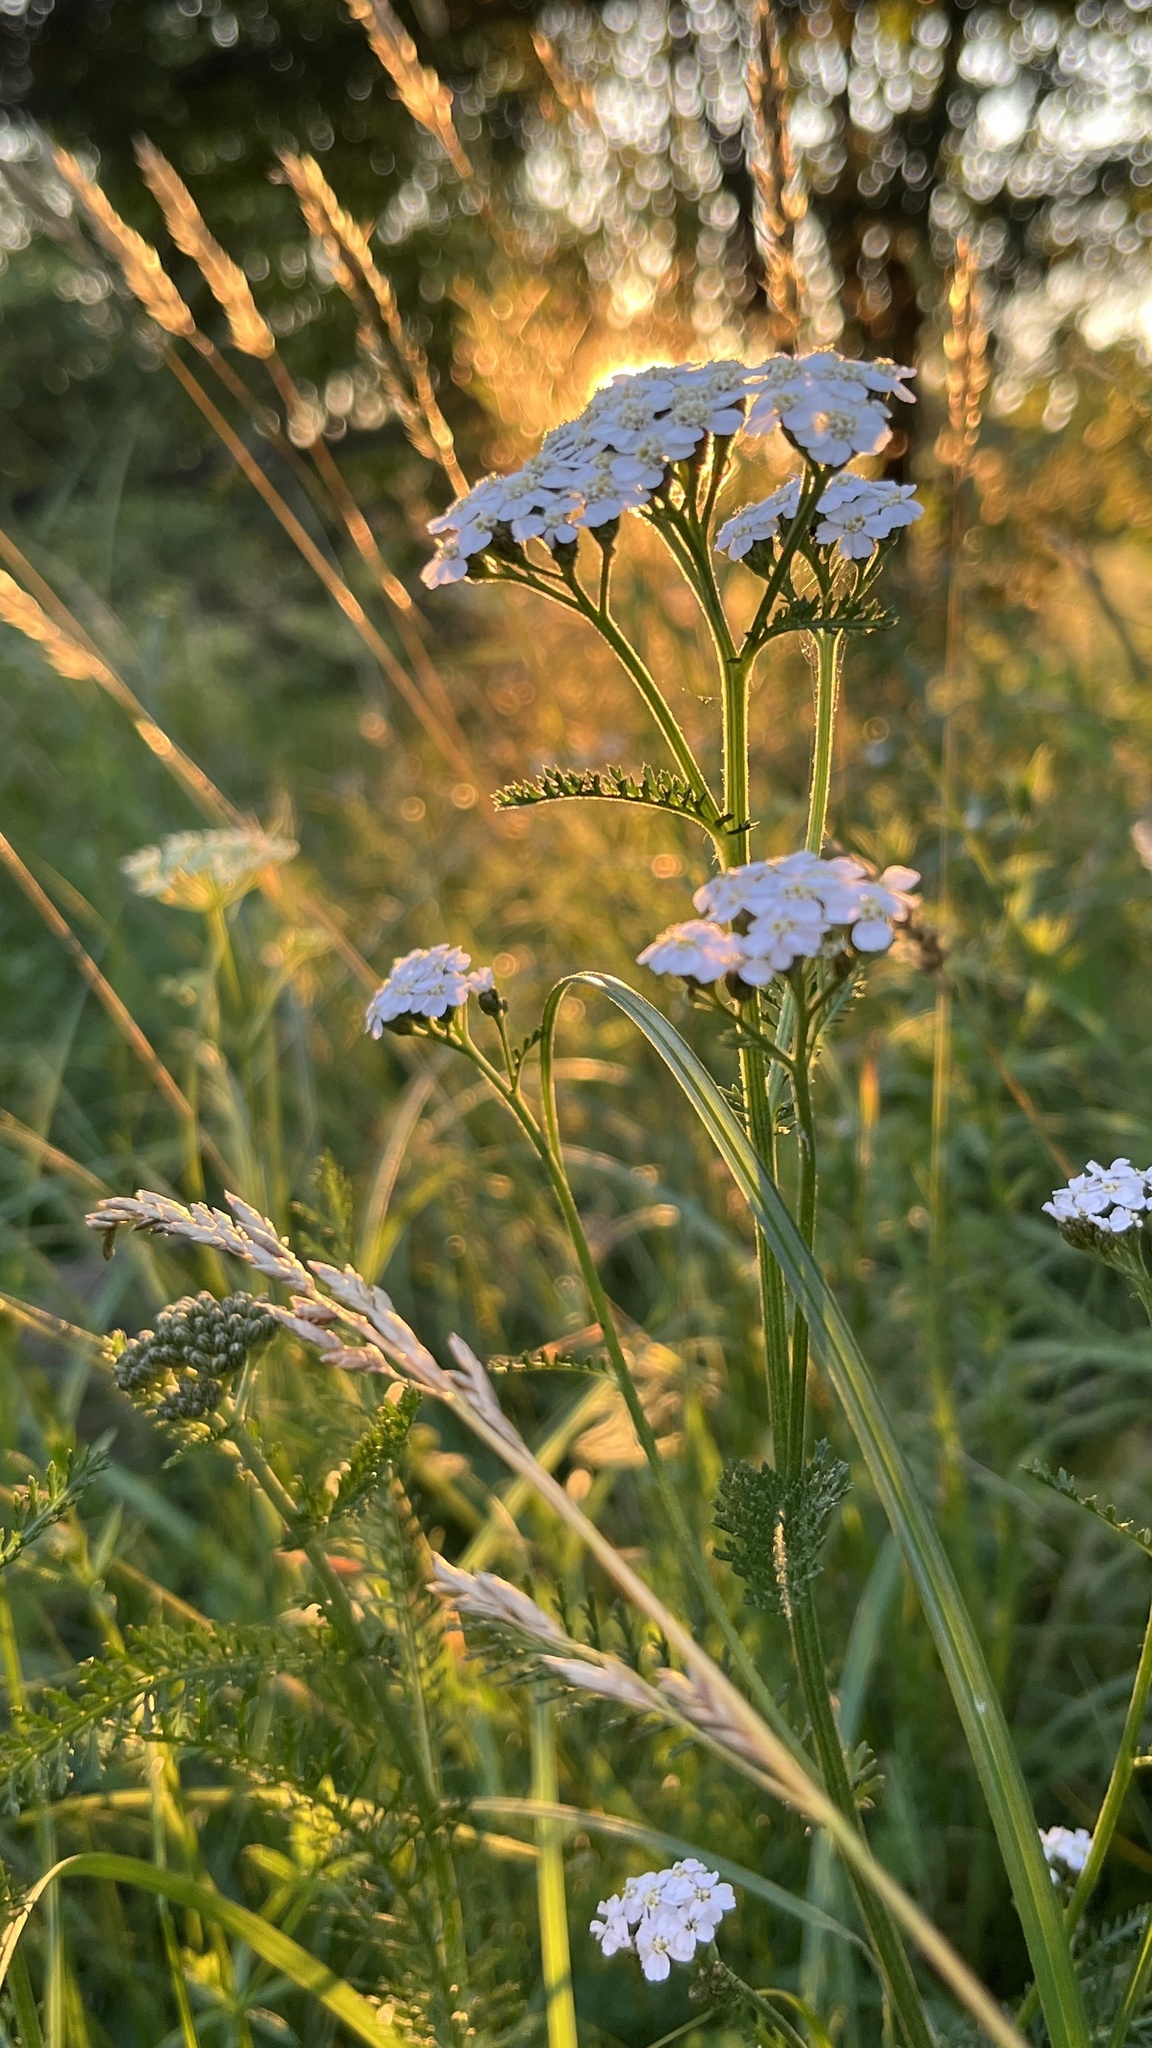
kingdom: Plantae
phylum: Tracheophyta
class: Magnoliopsida
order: Asterales
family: Asteraceae
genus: Achillea
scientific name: Achillea millefolium
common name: Yarrow
